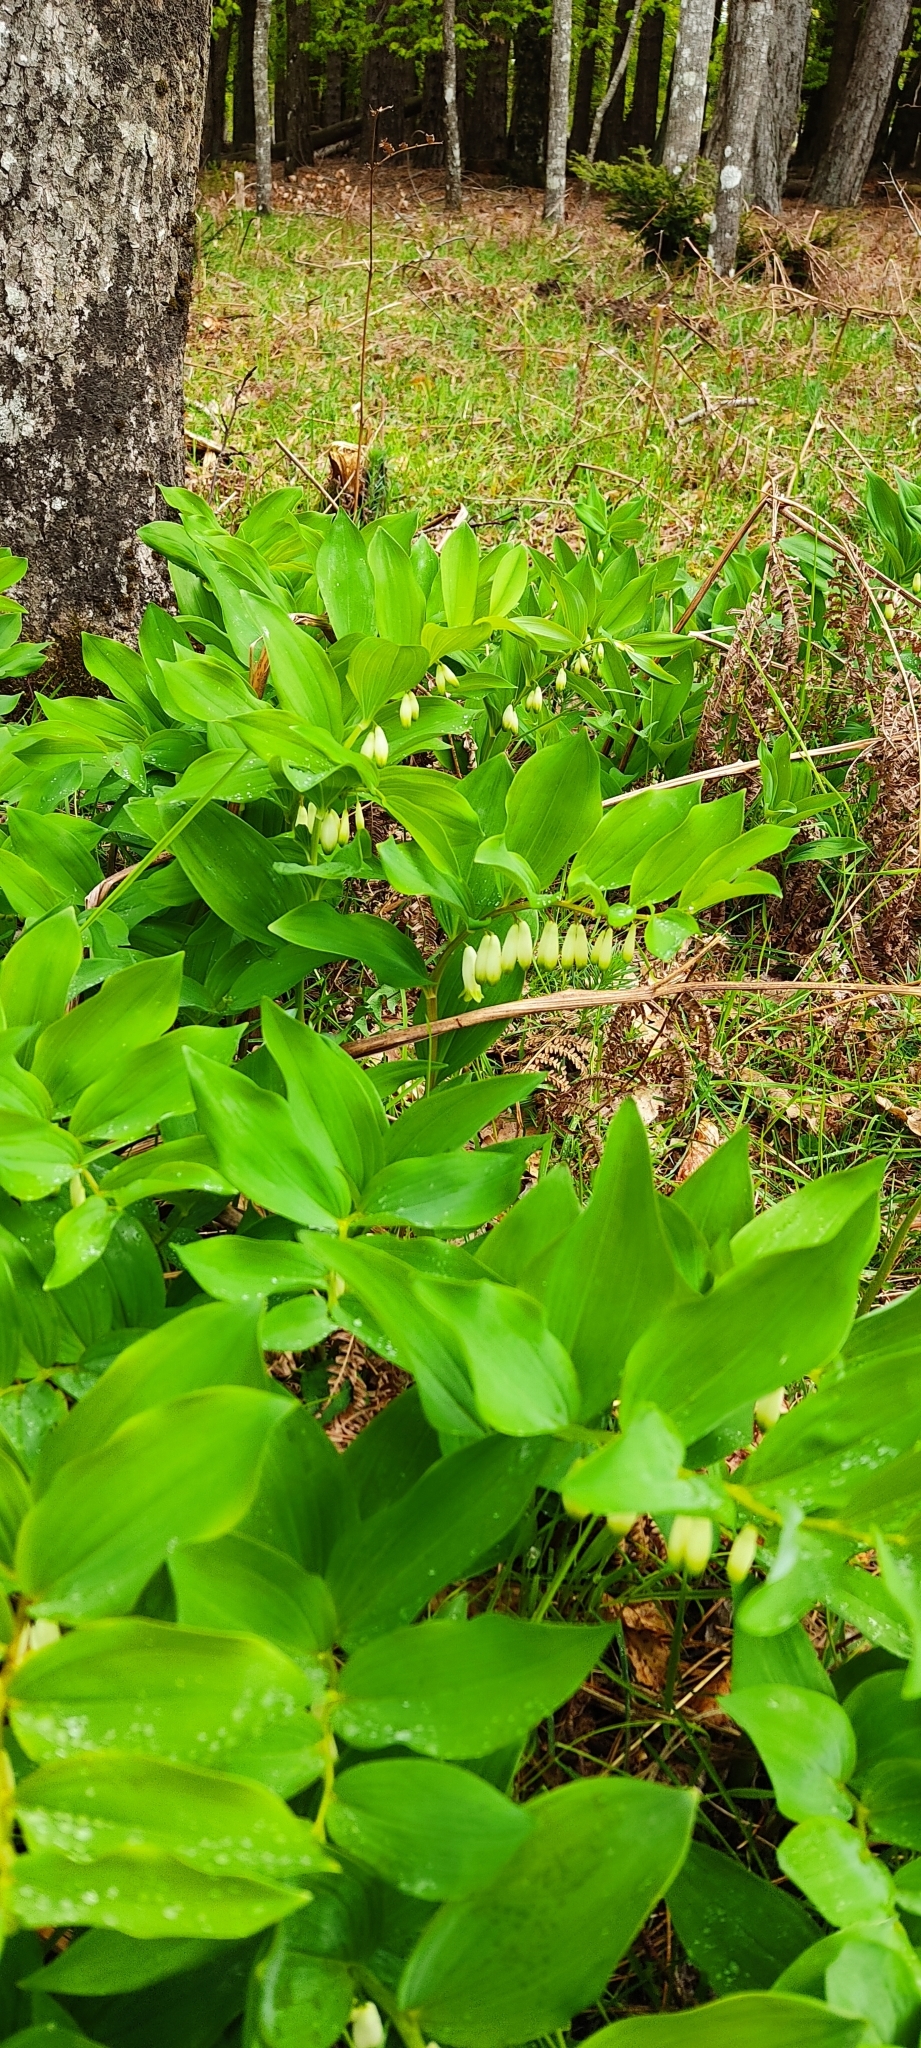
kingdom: Plantae
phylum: Tracheophyta
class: Liliopsida
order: Asparagales
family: Asparagaceae
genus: Polygonatum
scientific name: Polygonatum odoratum
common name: Angular solomon's-seal
